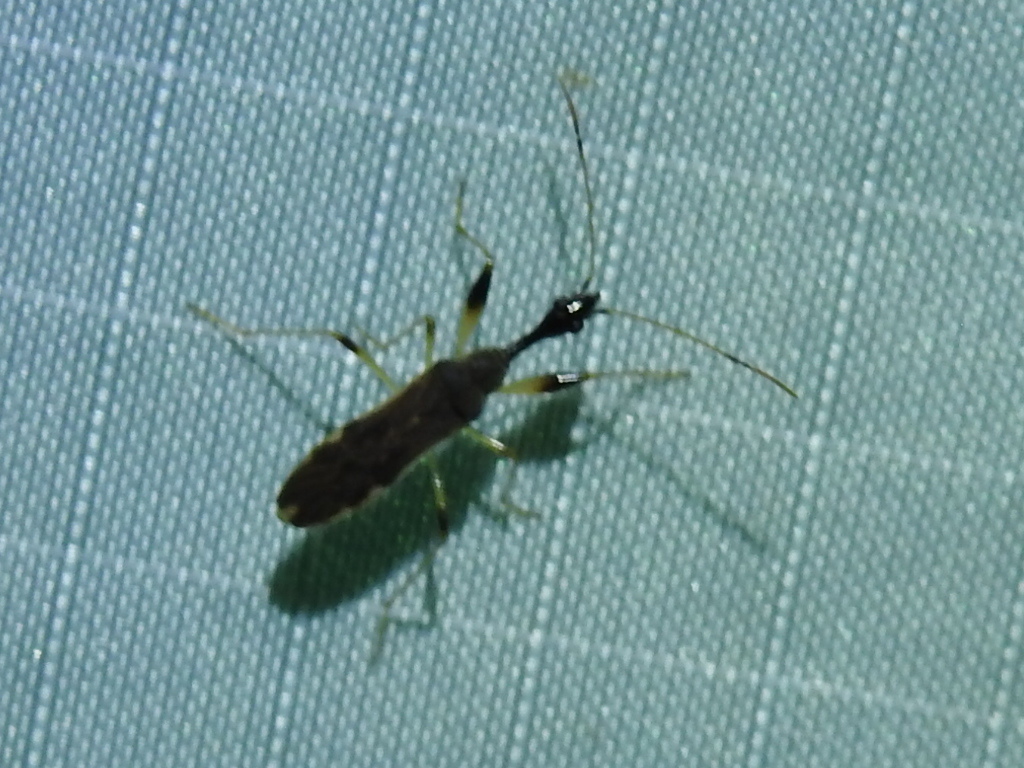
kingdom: Animalia
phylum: Arthropoda
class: Insecta
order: Hemiptera
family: Rhyparochromidae
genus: Myodocha
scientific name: Myodocha serripes
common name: Long-necked seed bug
